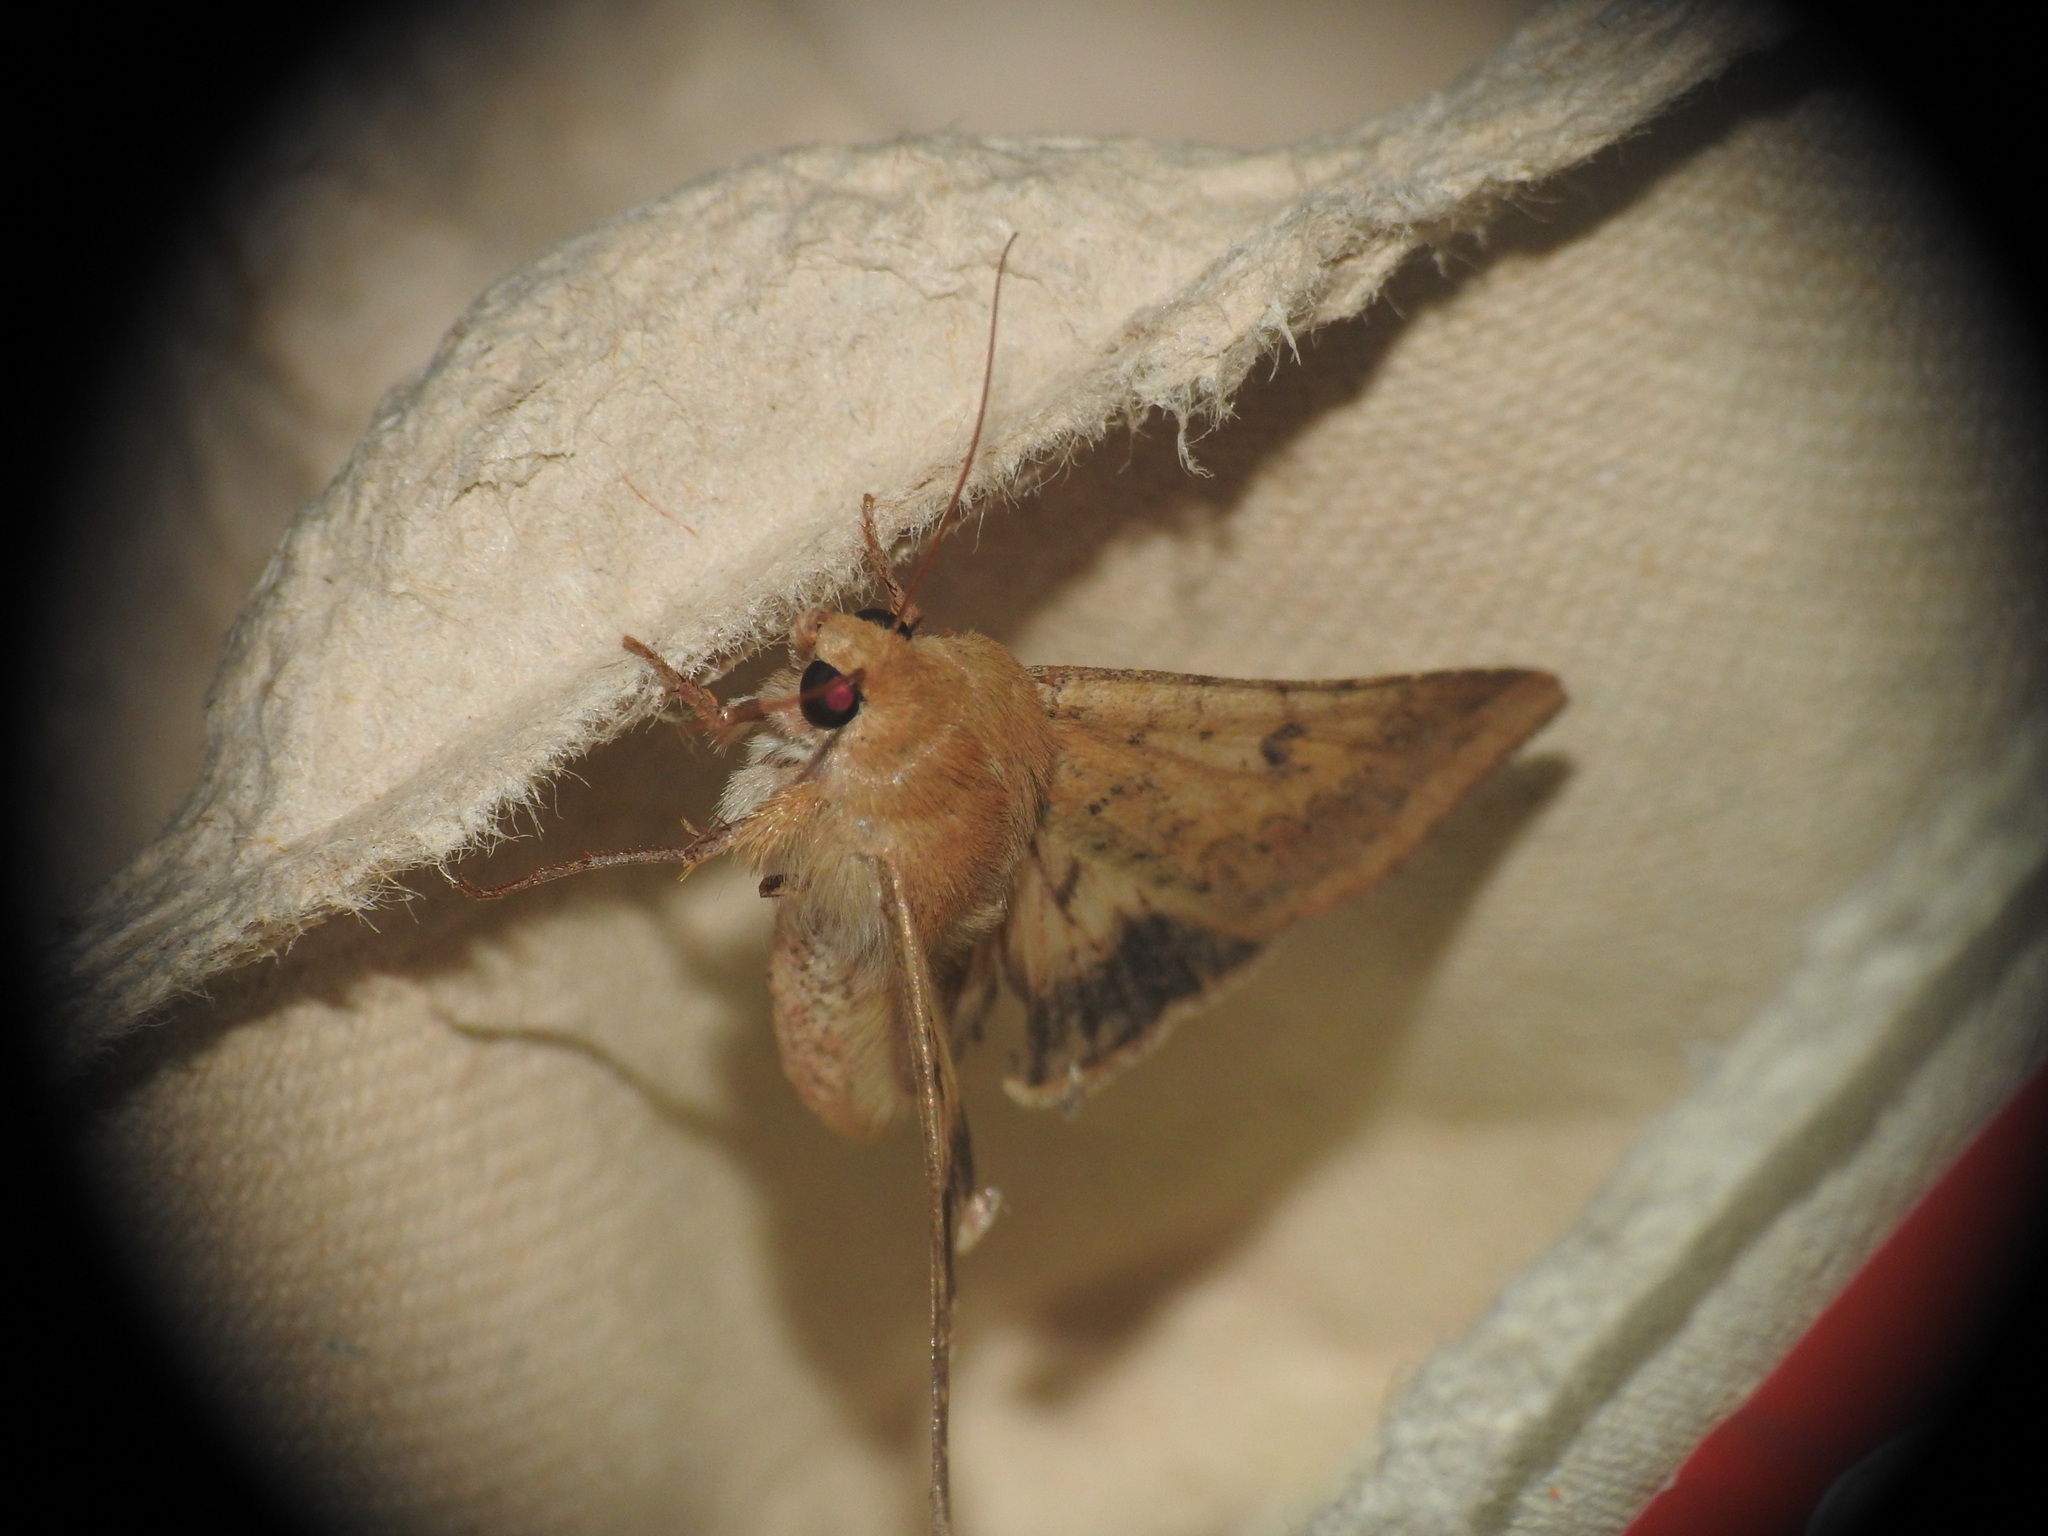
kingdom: Animalia
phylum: Arthropoda
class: Insecta
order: Lepidoptera
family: Noctuidae
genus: Helicoverpa
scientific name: Helicoverpa armigera
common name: Cotton bollworm
